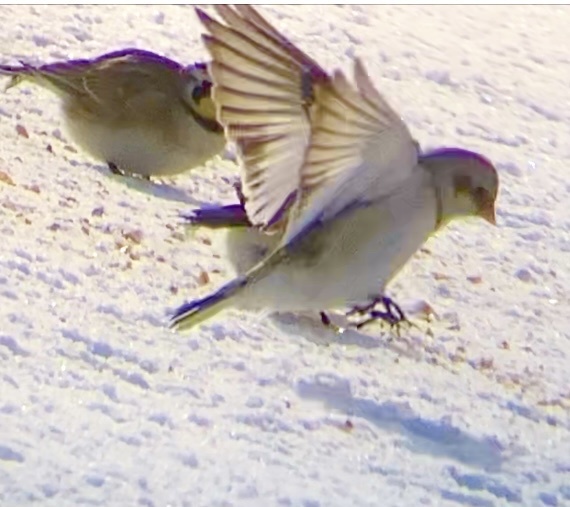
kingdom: Animalia
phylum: Chordata
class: Aves
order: Passeriformes
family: Calcariidae
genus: Plectrophenax
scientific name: Plectrophenax nivalis
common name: Snow bunting
